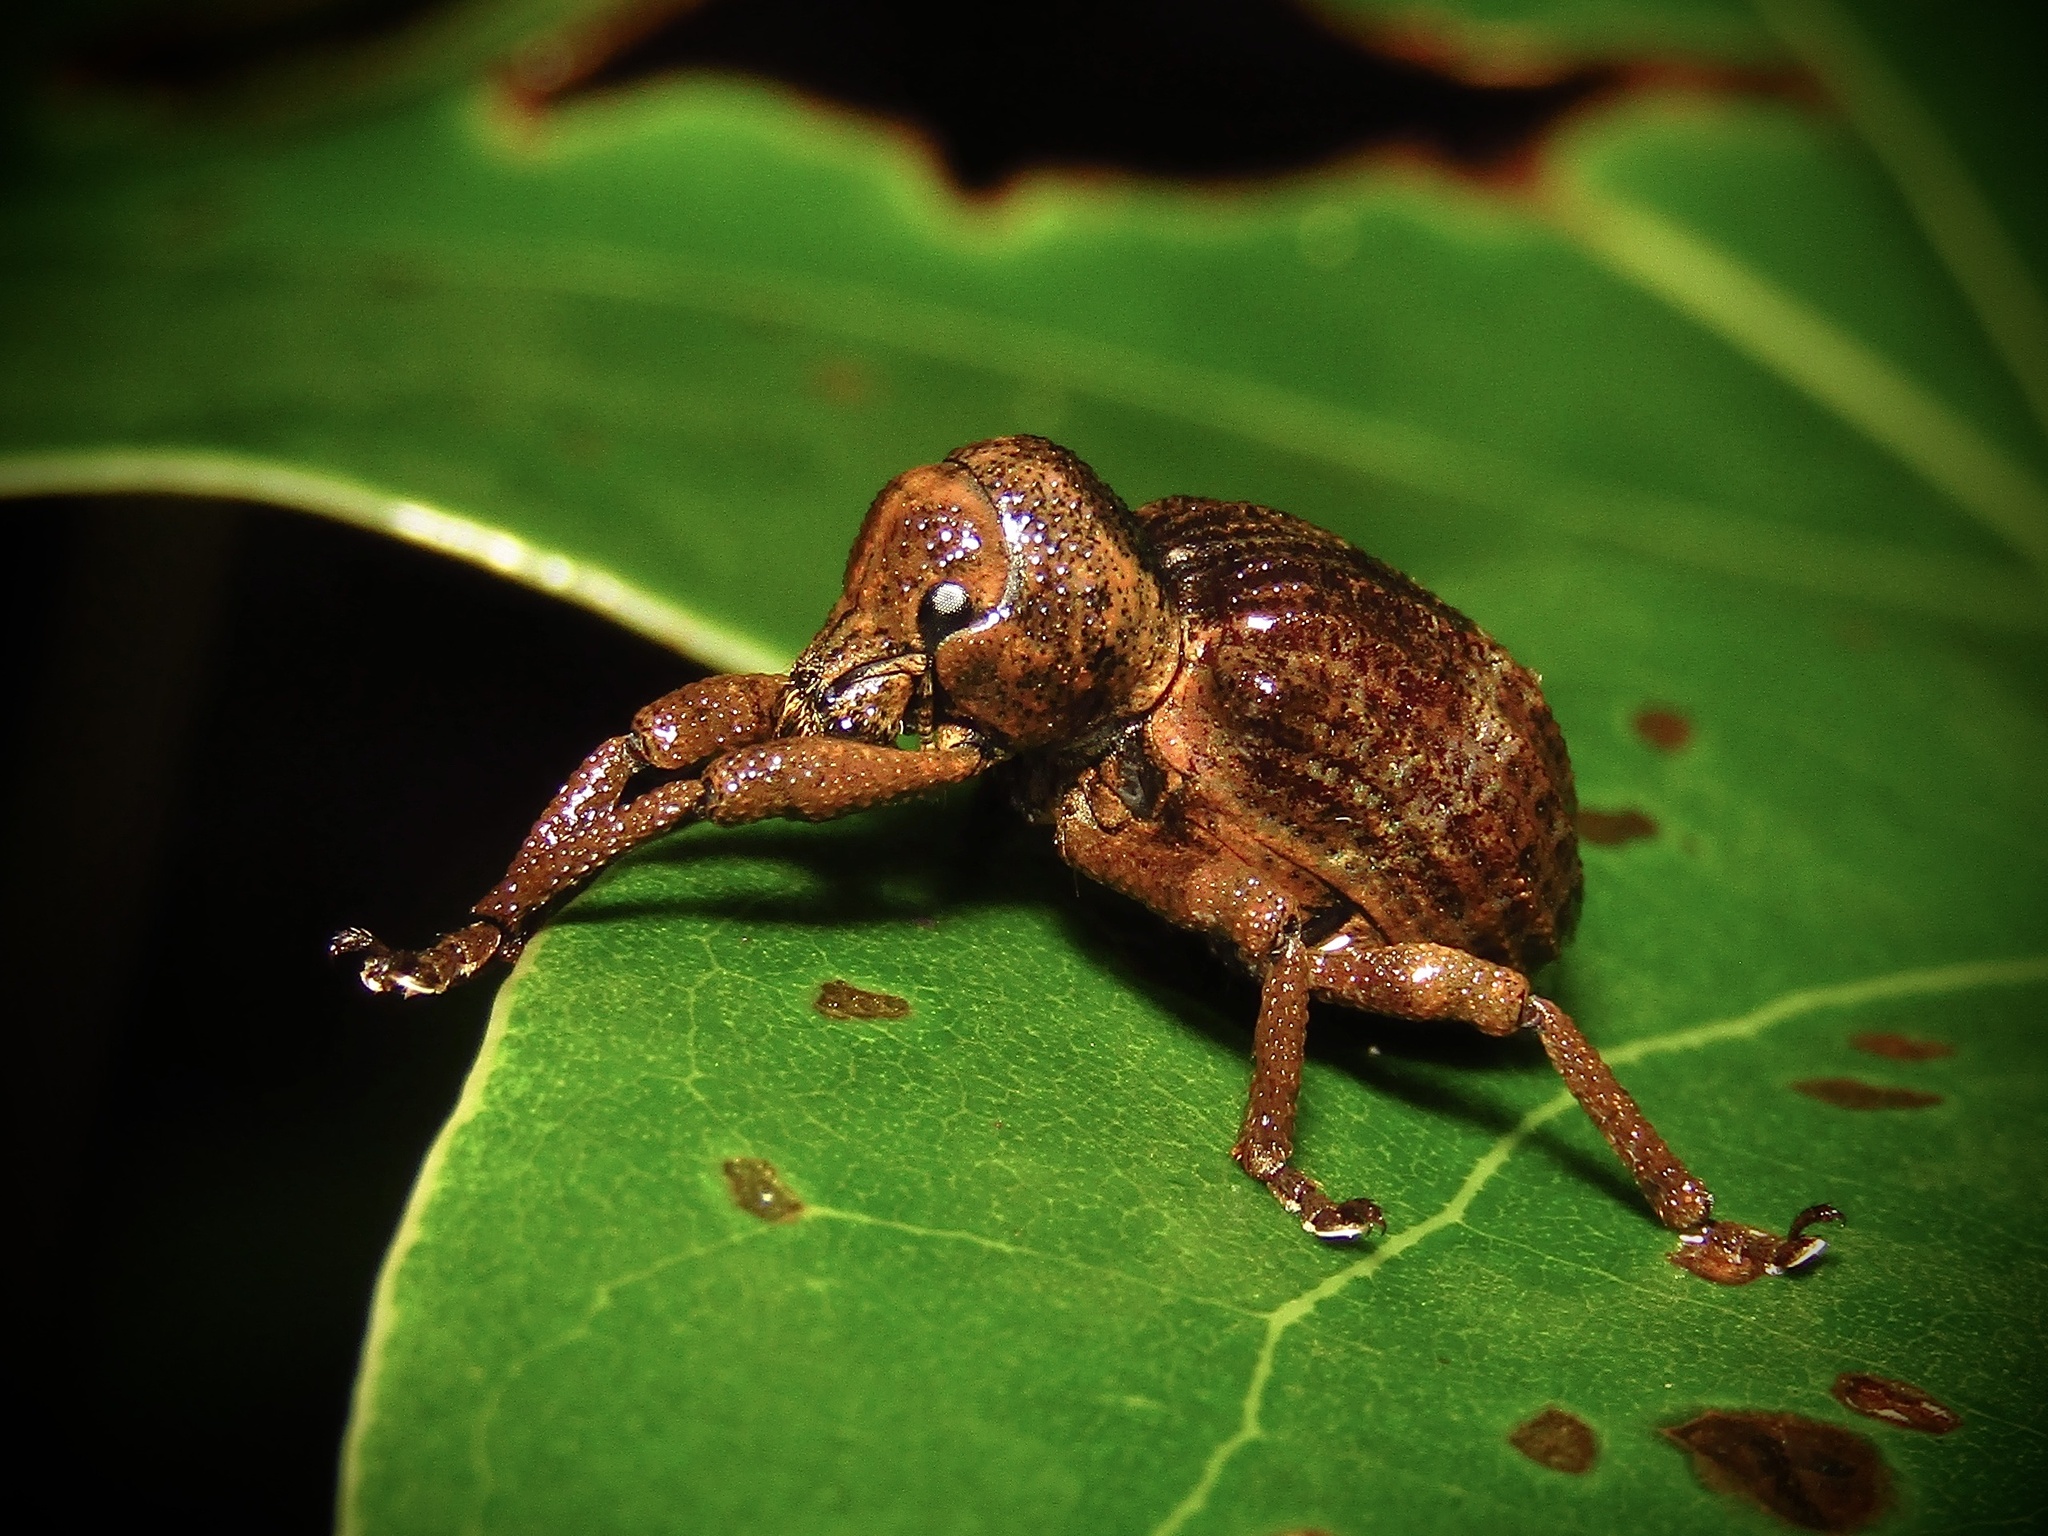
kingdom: Animalia
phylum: Arthropoda
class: Insecta
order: Coleoptera
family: Curculionidae
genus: Aades
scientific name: Aades
